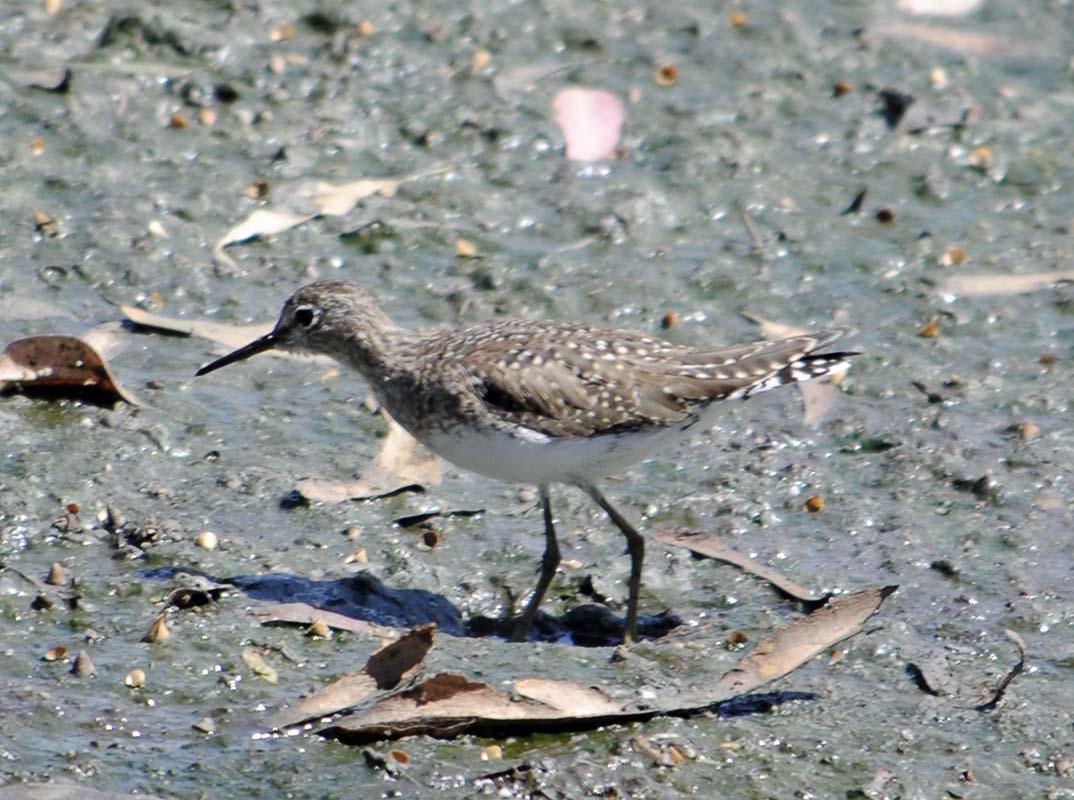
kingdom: Animalia
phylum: Chordata
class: Aves
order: Charadriiformes
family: Scolopacidae
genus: Tringa
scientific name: Tringa solitaria
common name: Solitary sandpiper
